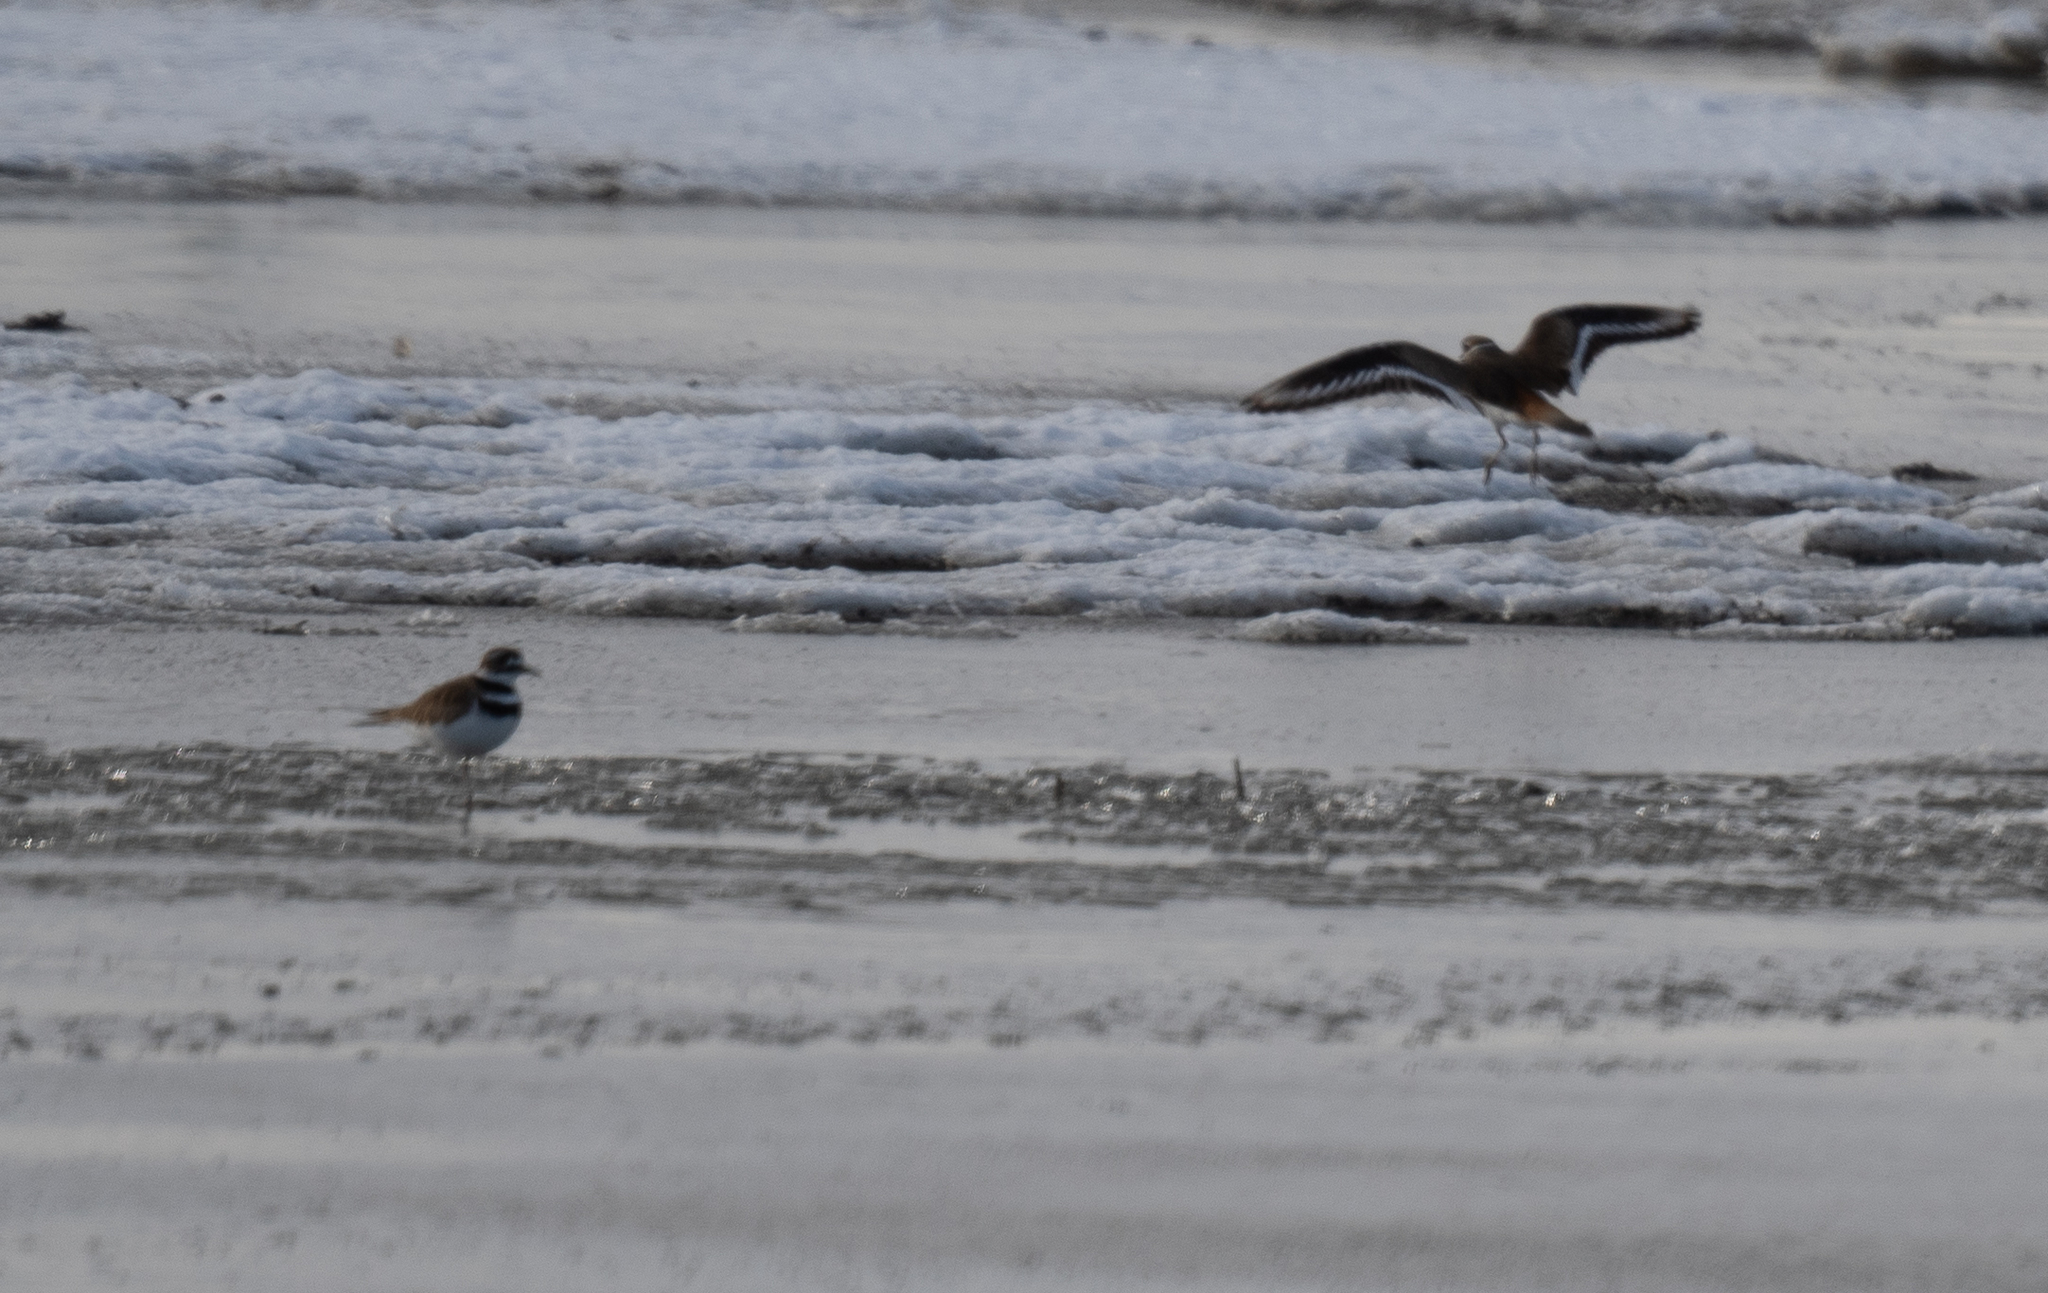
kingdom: Animalia
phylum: Chordata
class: Aves
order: Charadriiformes
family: Charadriidae
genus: Charadrius
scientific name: Charadrius vociferus
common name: Killdeer
